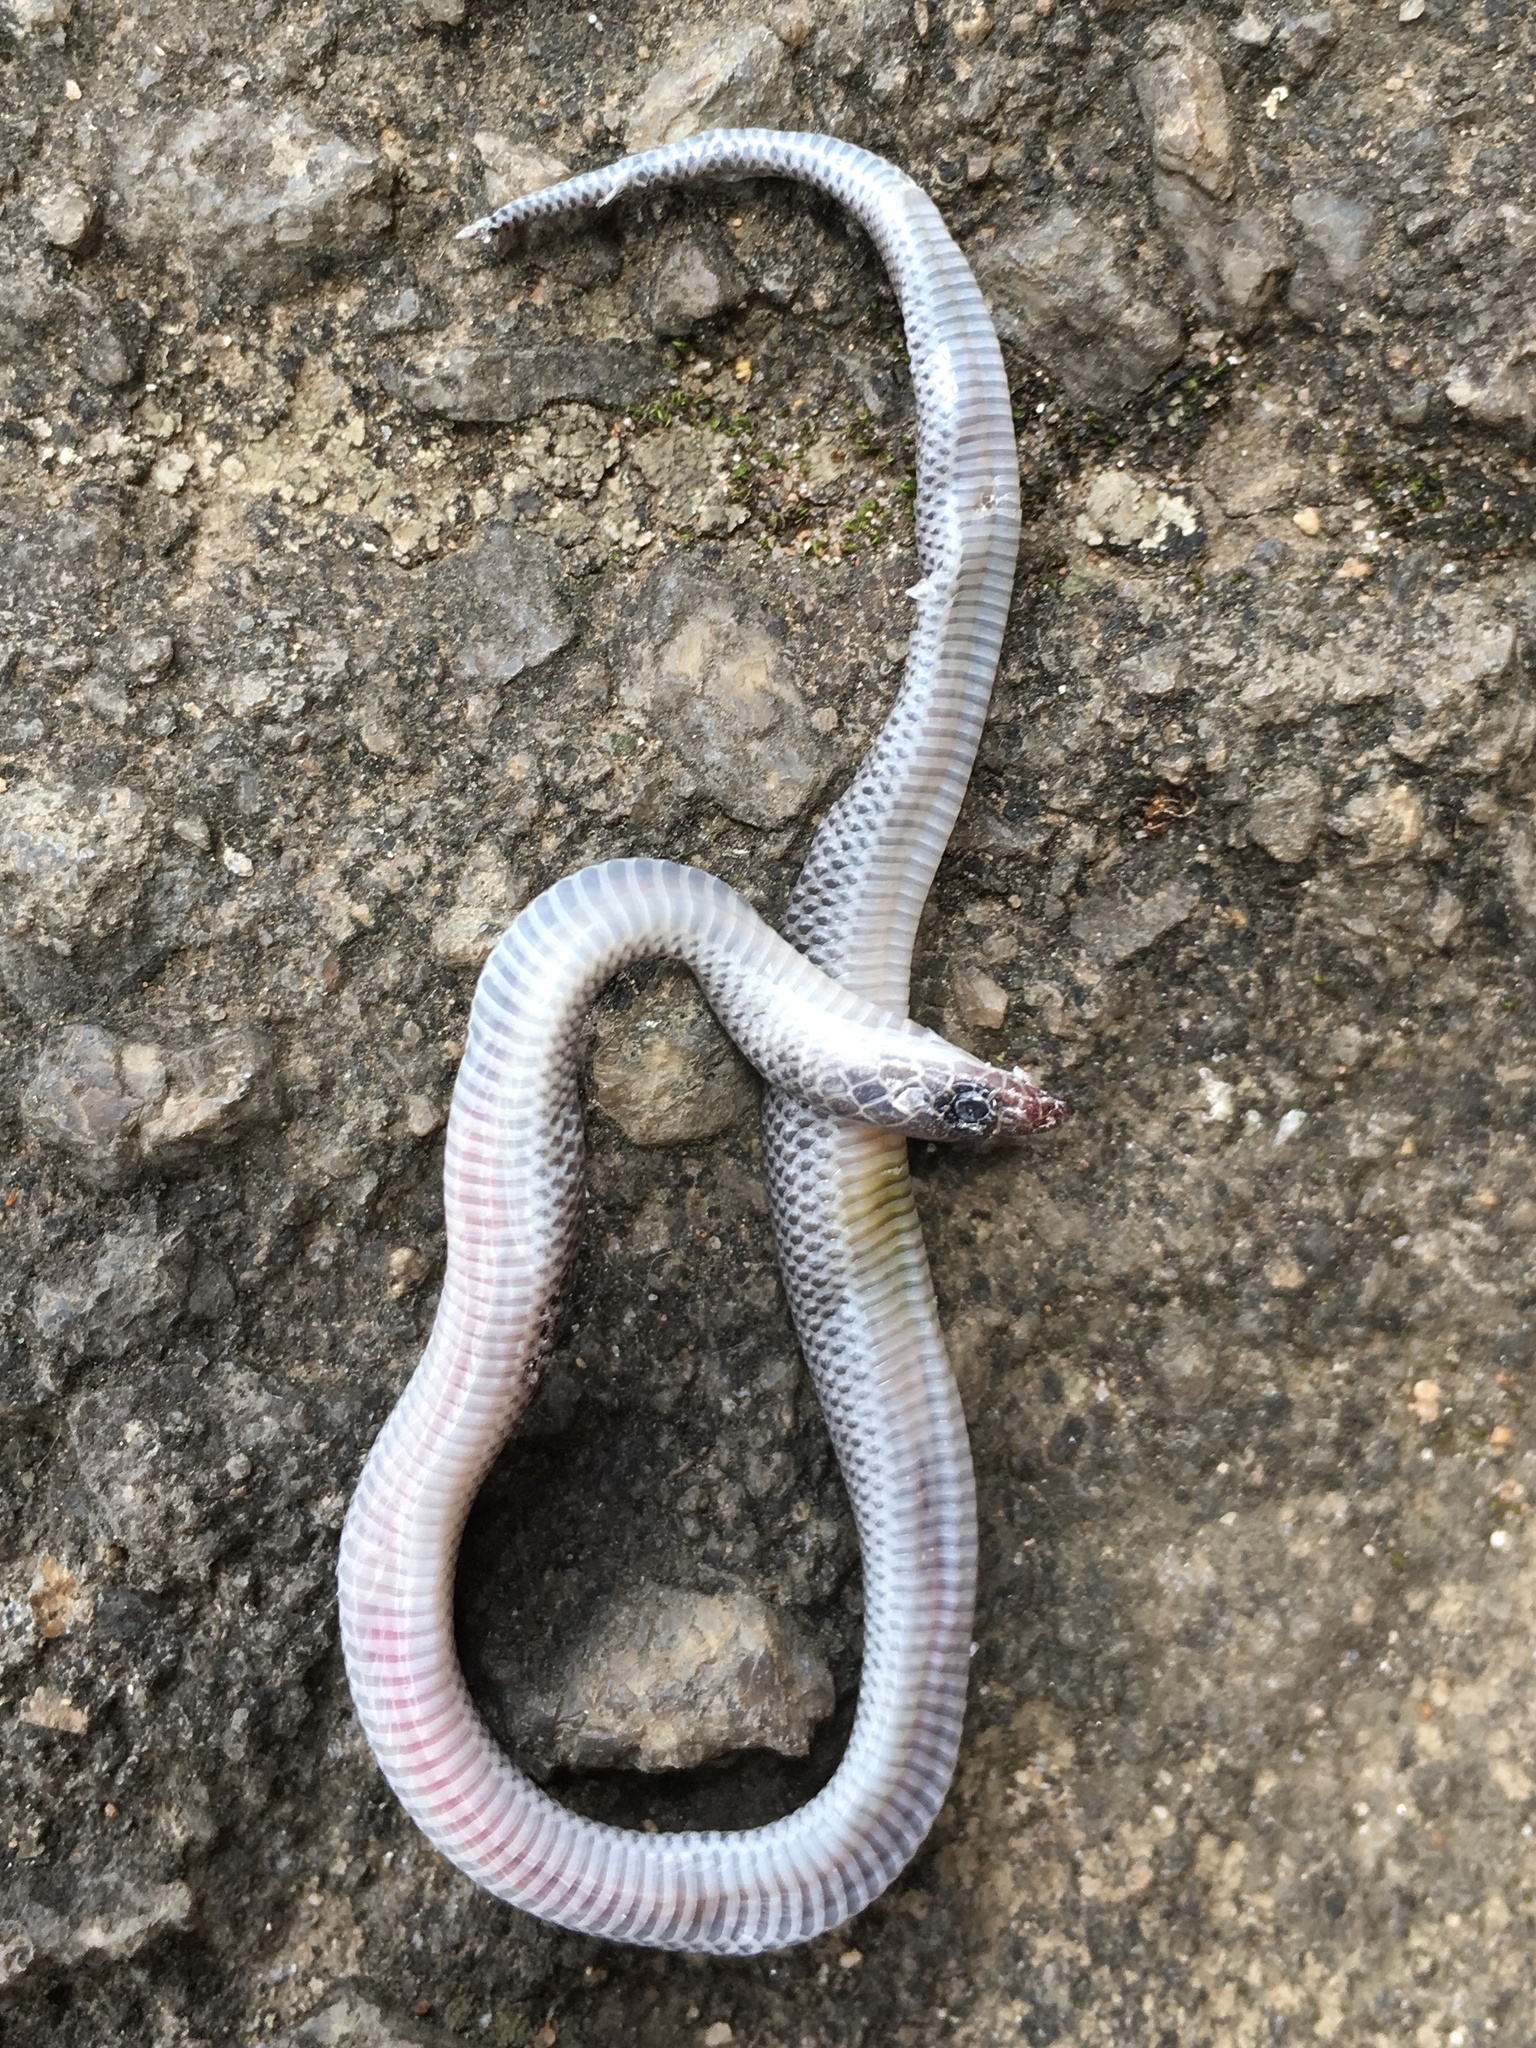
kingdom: Animalia
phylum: Chordata
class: Squamata
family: Lamprophiidae
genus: Lycophidion
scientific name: Lycophidion capense
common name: Cape wolf snake
